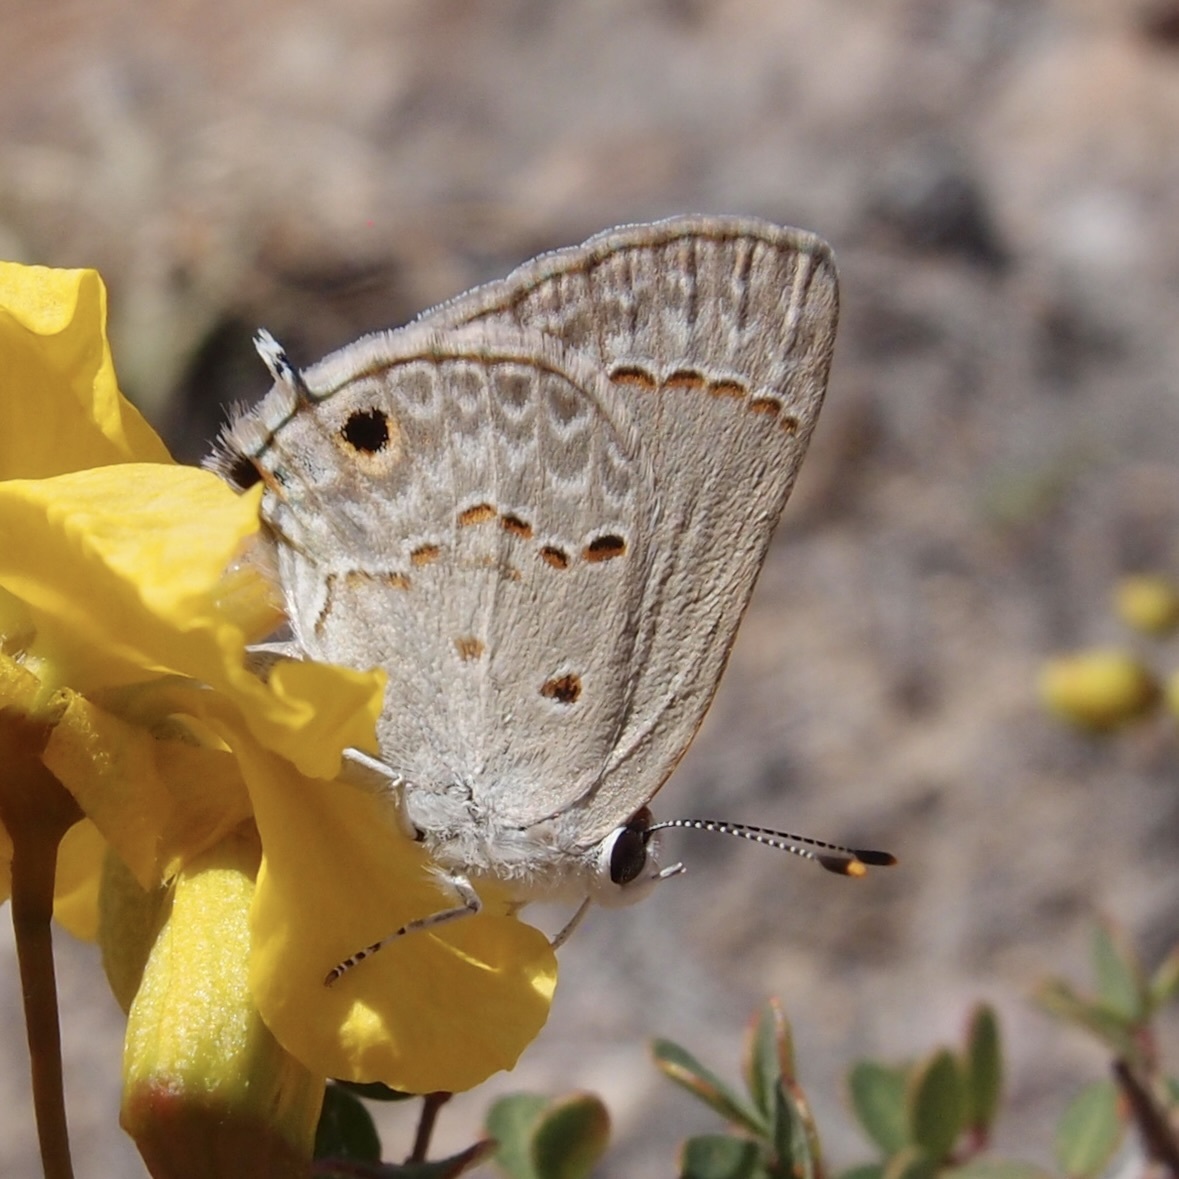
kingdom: Animalia
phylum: Arthropoda
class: Insecta
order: Lepidoptera
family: Lycaenidae
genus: Callicista
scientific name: Callicista columella
